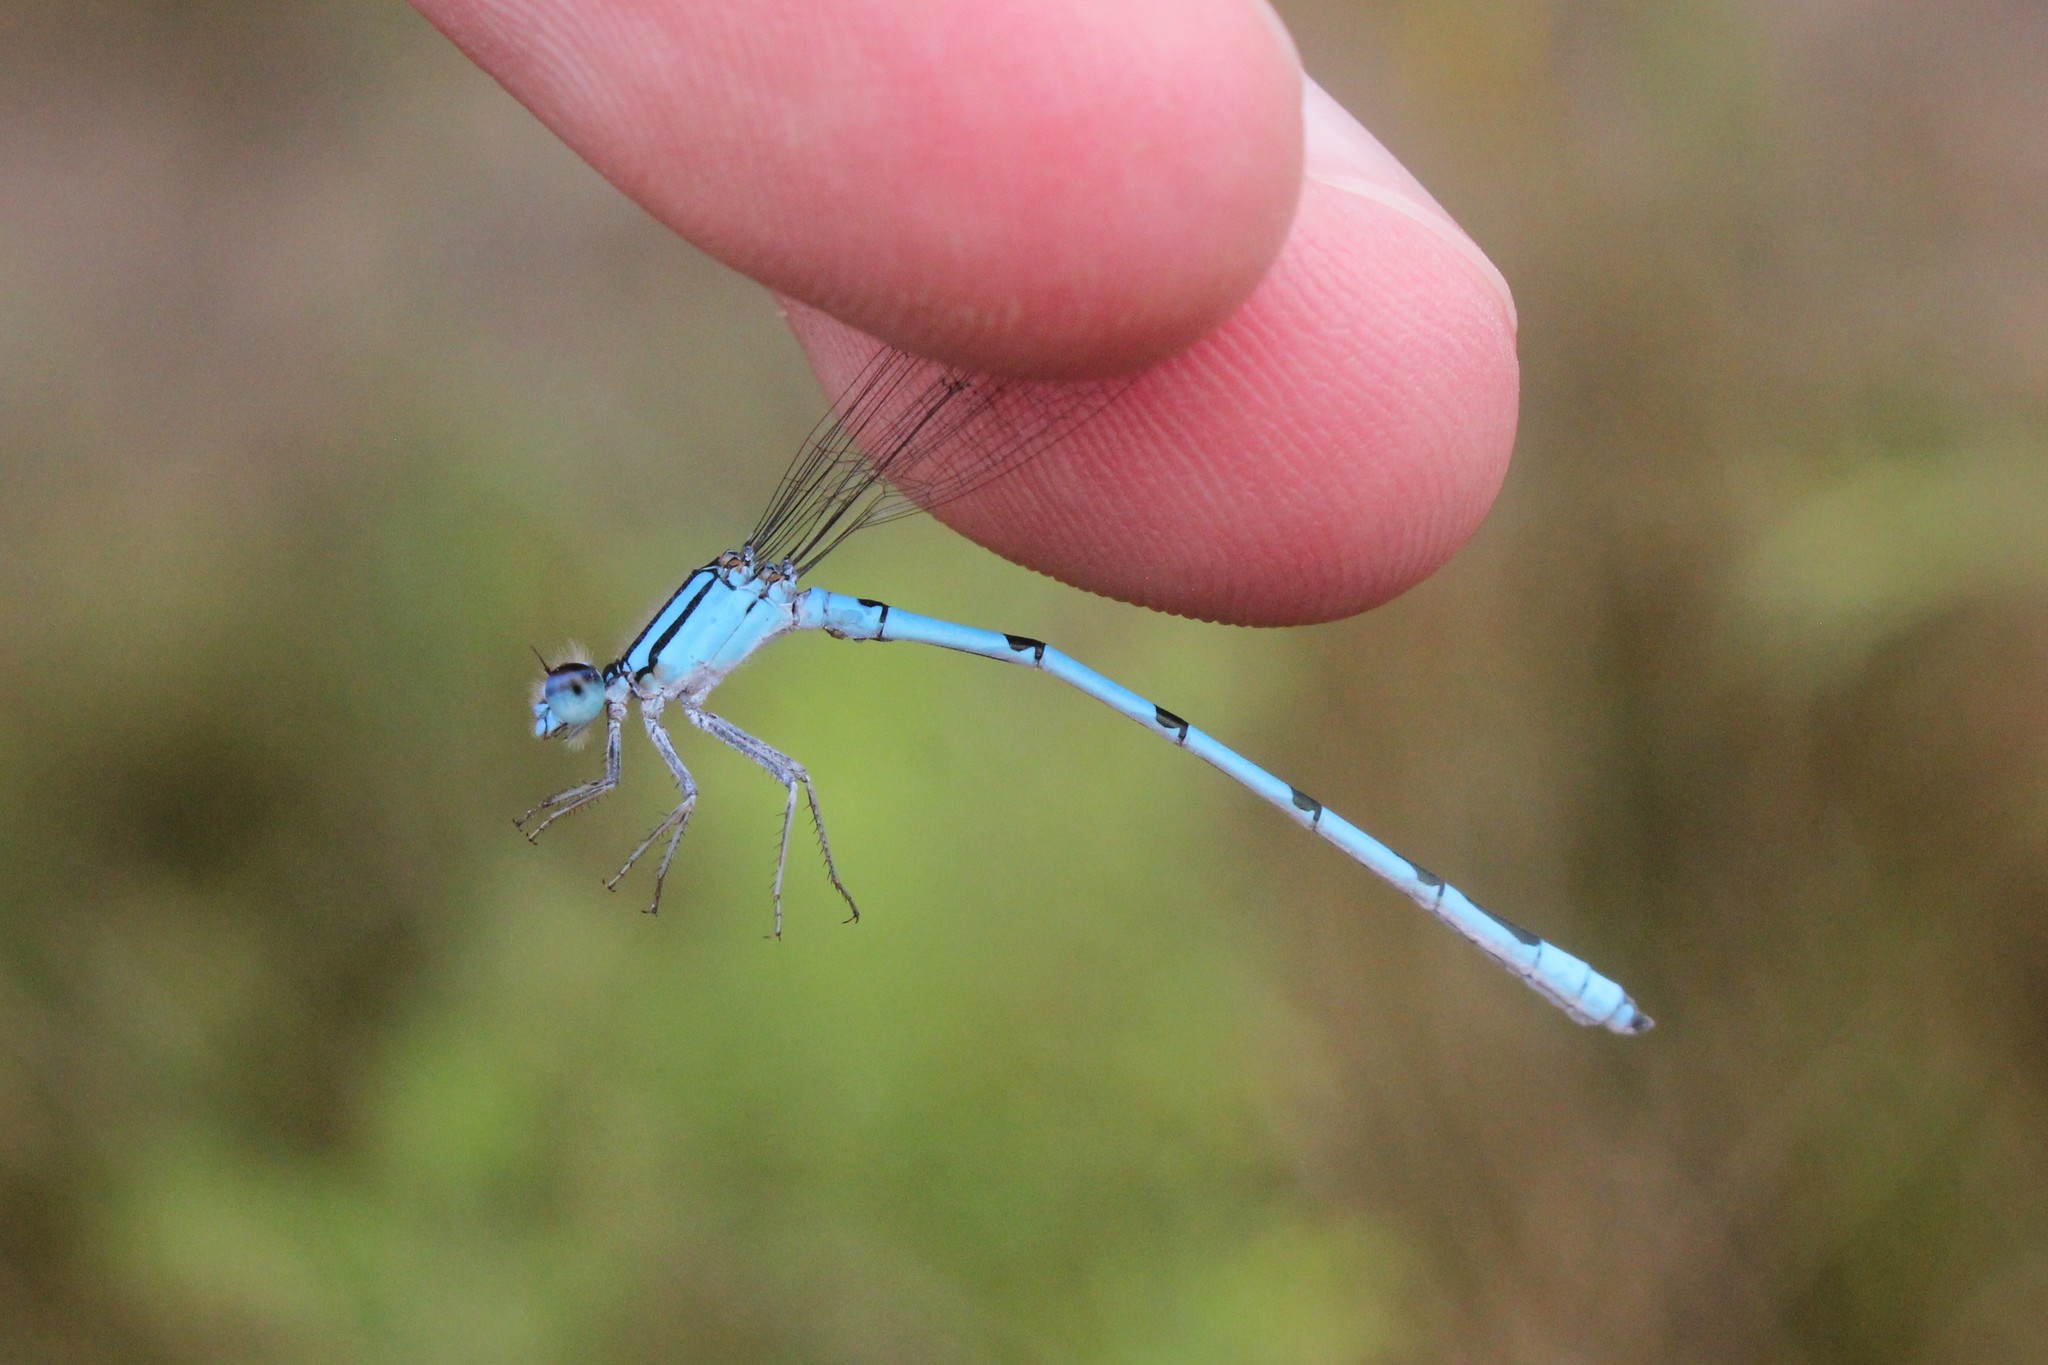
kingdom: Animalia
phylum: Arthropoda
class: Insecta
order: Odonata
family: Coenagrionidae
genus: Enallagma
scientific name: Enallagma civile
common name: Damselfly
